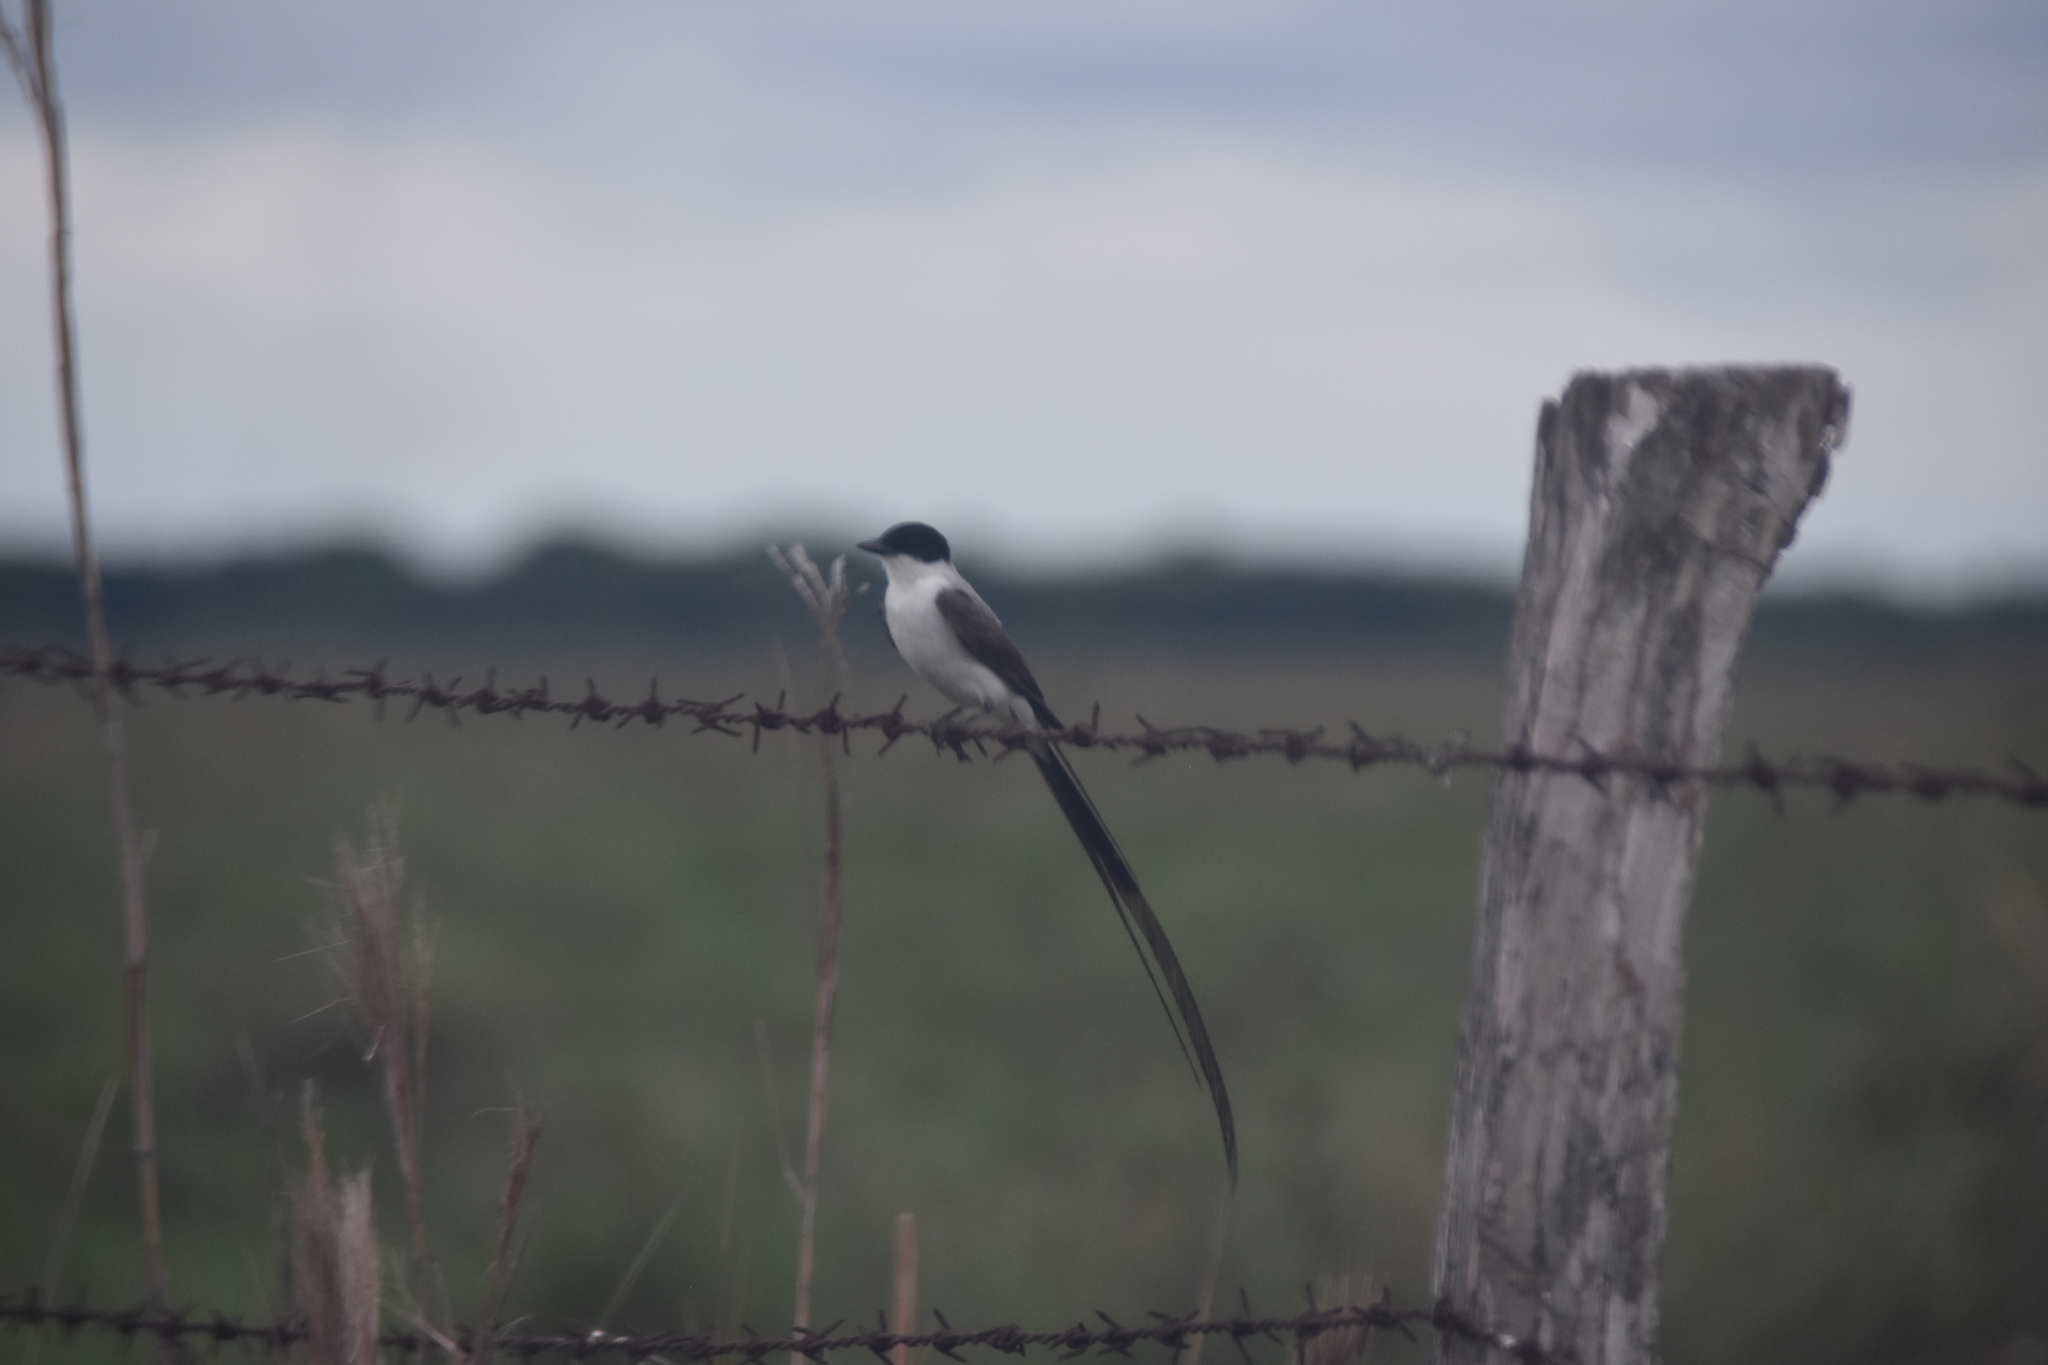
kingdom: Animalia
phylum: Chordata
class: Aves
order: Passeriformes
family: Tyrannidae
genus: Tyrannus
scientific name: Tyrannus savana
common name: Fork-tailed flycatcher
